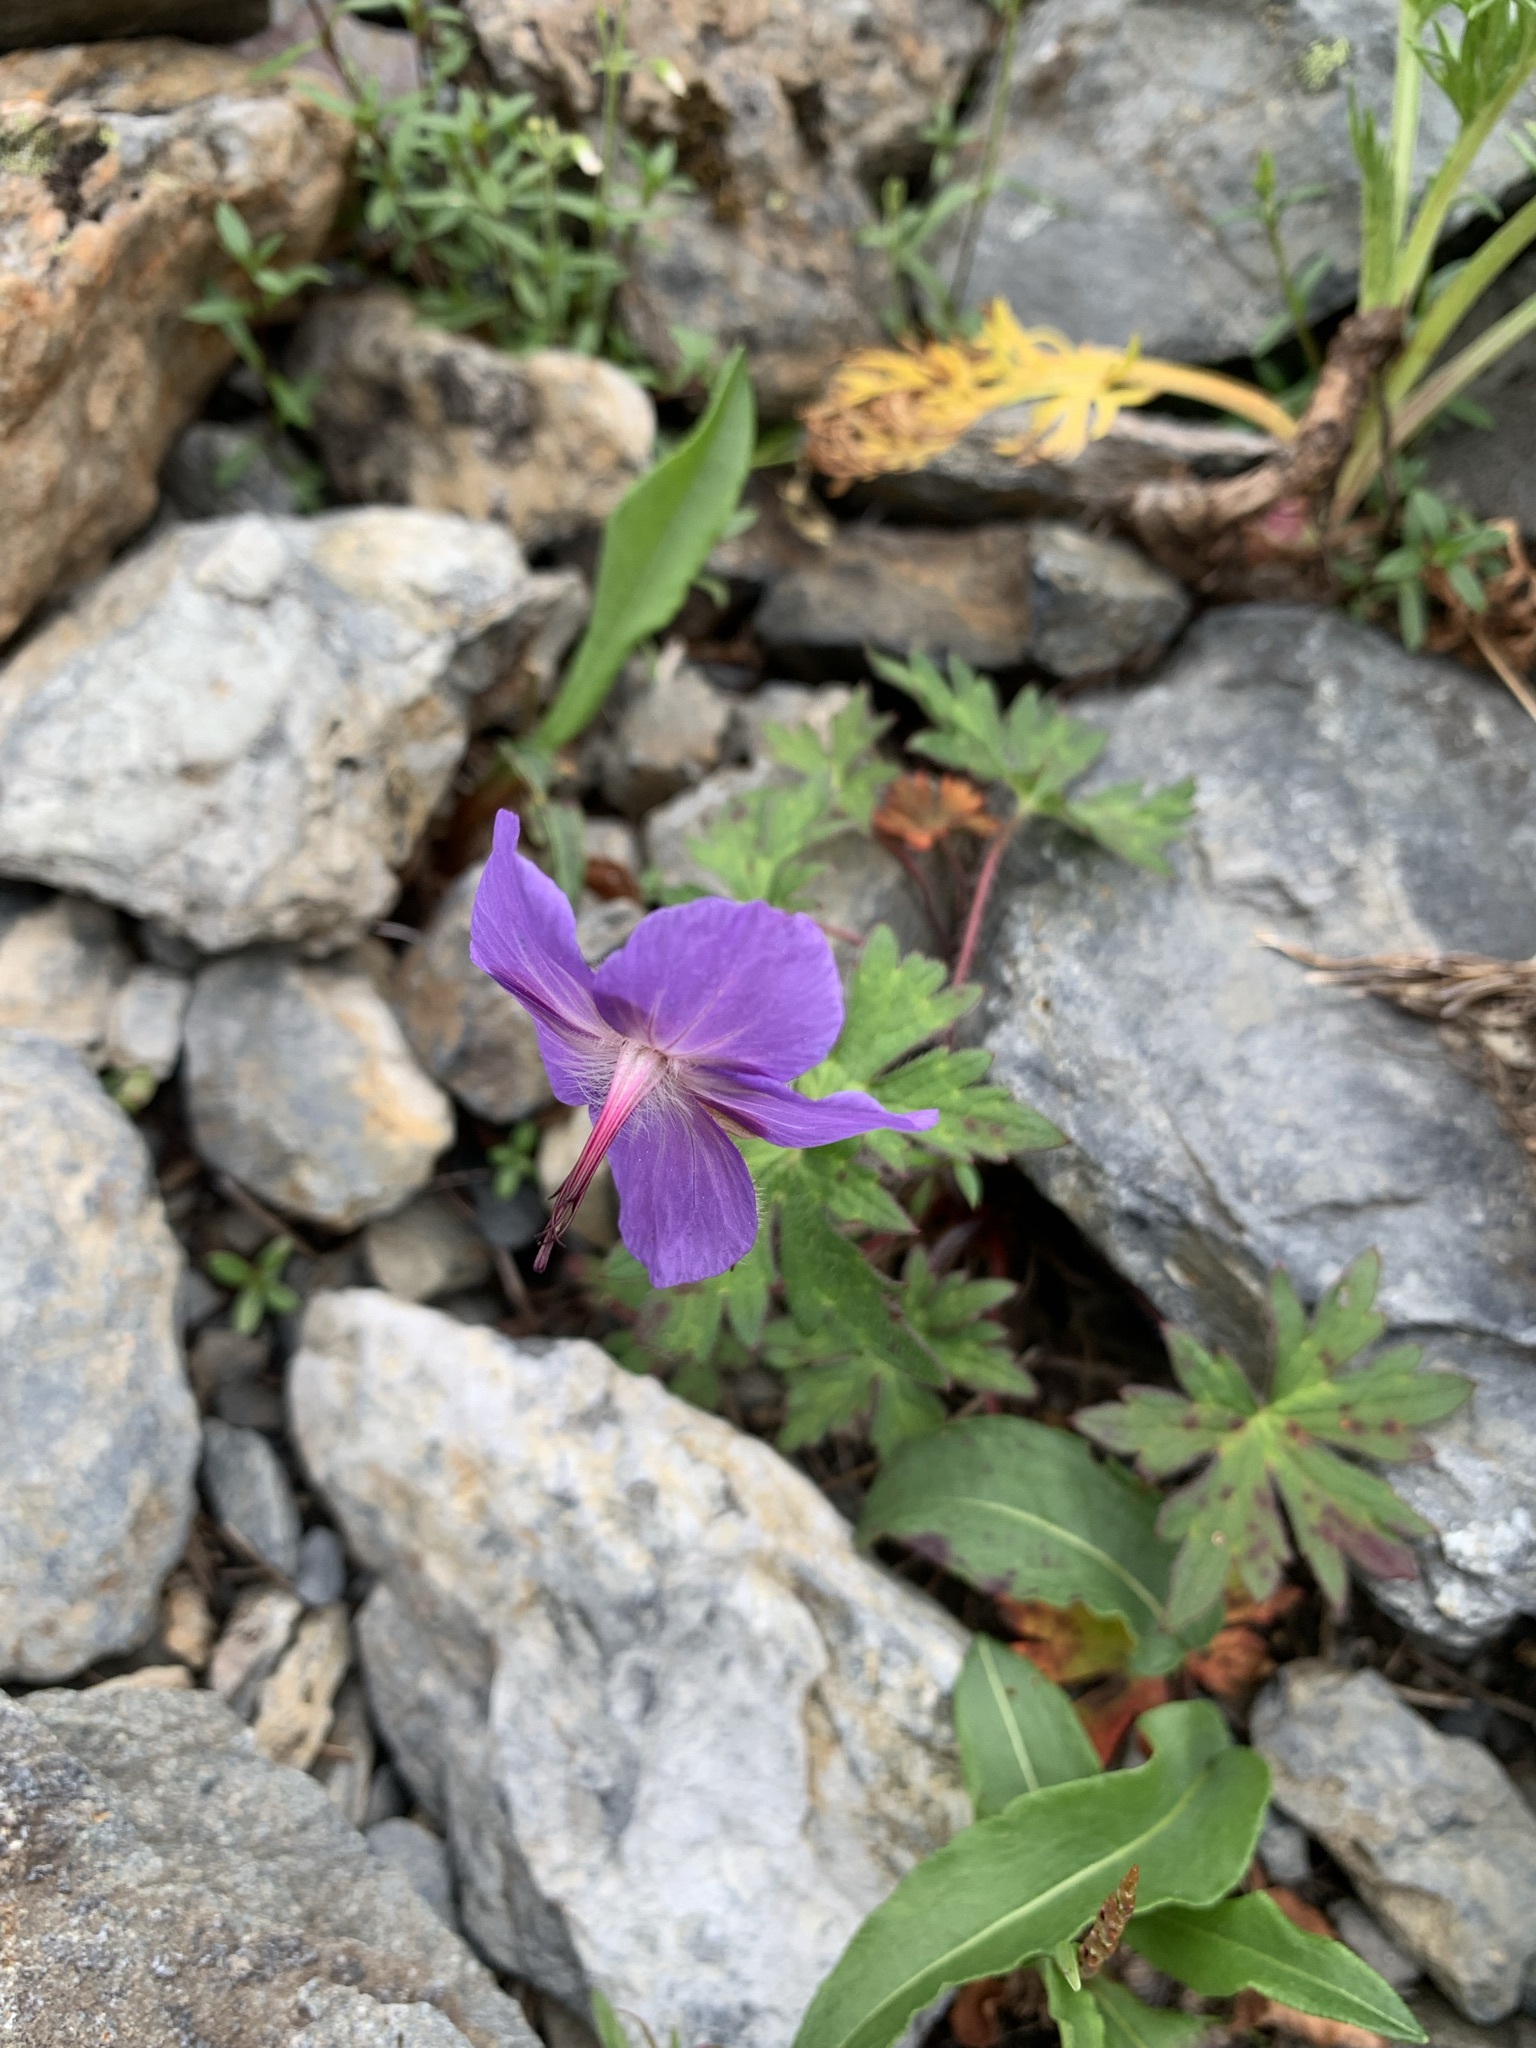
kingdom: Plantae
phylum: Tracheophyta
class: Magnoliopsida
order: Geraniales
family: Geraniaceae
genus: Geranium
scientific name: Geranium reinii
